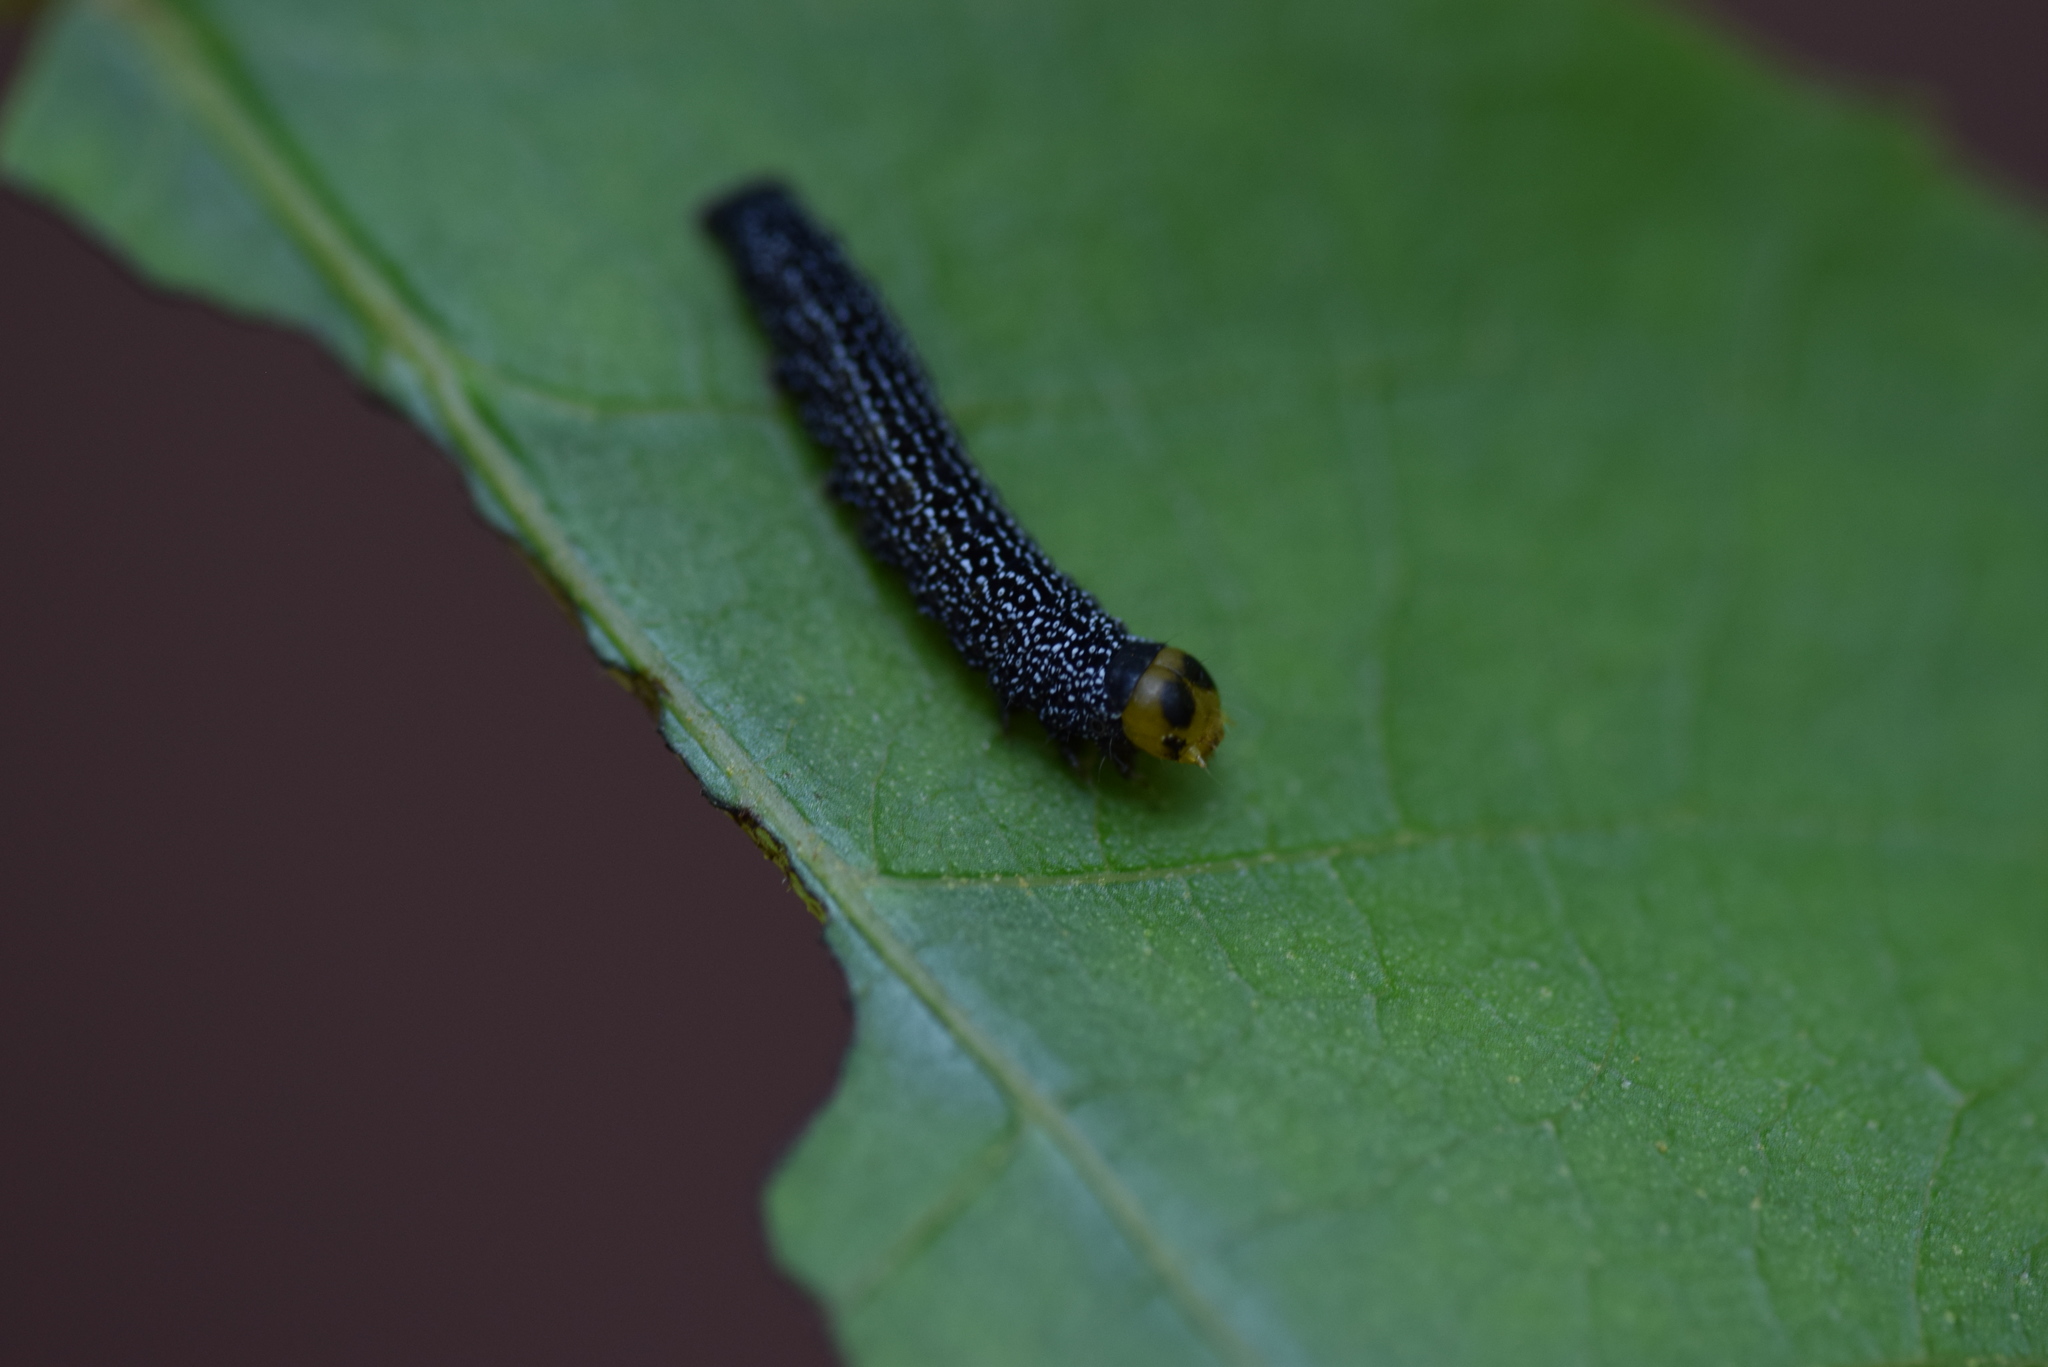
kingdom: Animalia
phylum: Arthropoda
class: Insecta
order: Lepidoptera
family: Erebidae
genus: Hypsoropha
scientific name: Hypsoropha monilis
